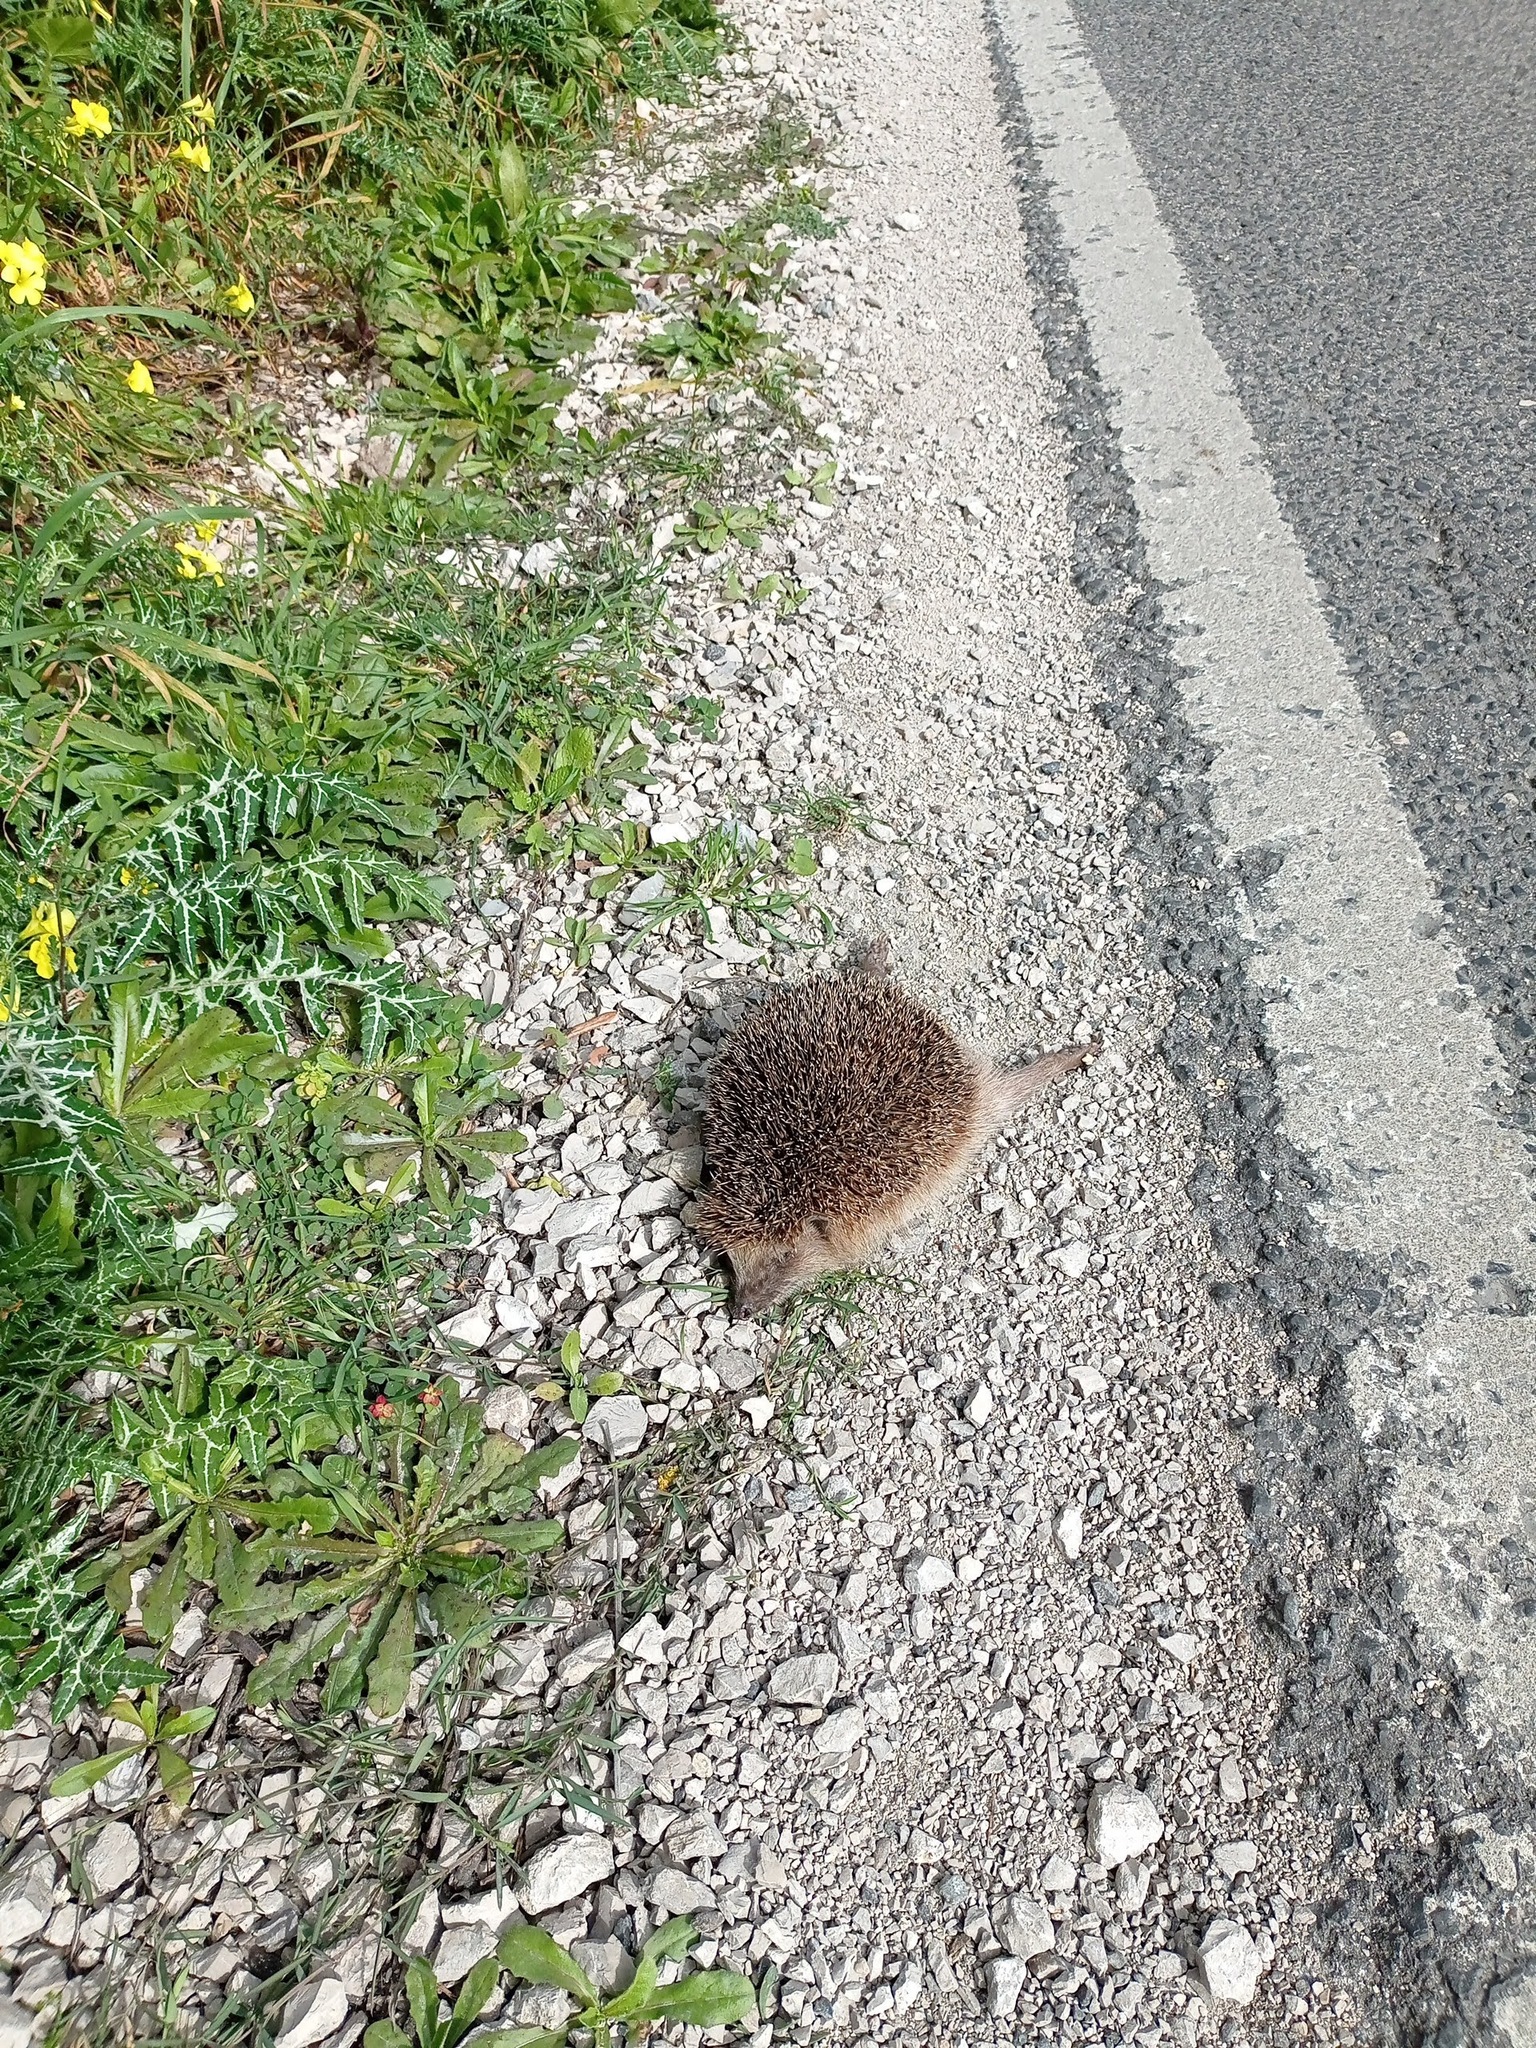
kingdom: Animalia
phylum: Chordata
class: Mammalia
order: Erinaceomorpha
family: Erinaceidae
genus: Erinaceus
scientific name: Erinaceus europaeus
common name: West european hedgehog
